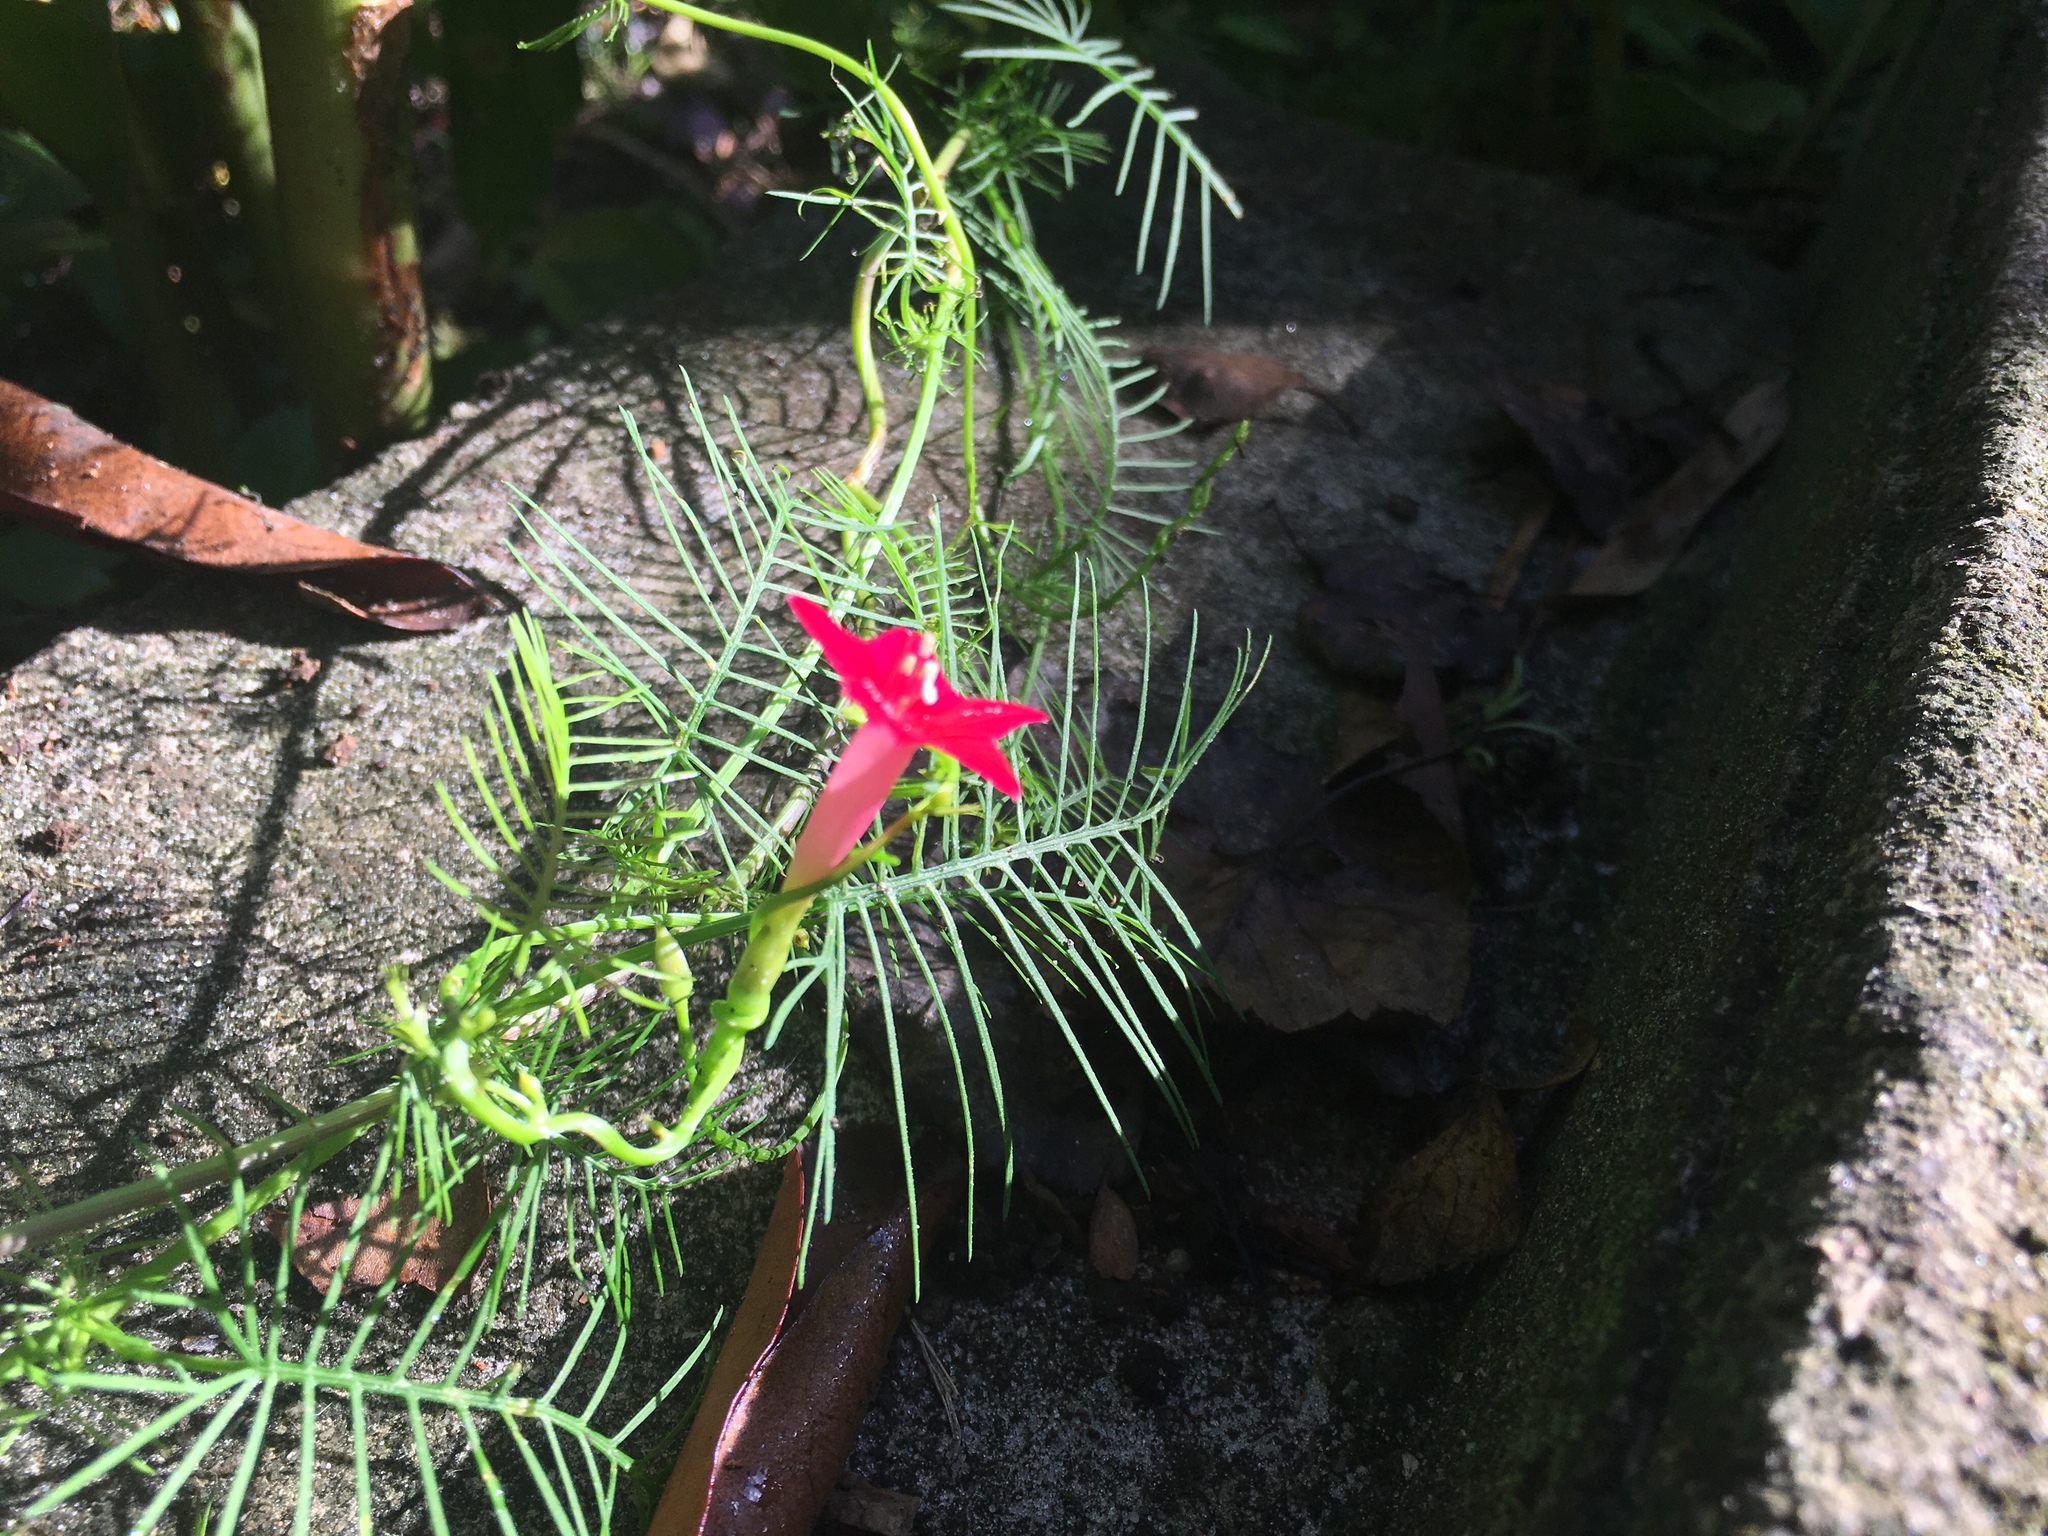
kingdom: Plantae
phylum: Tracheophyta
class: Magnoliopsida
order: Solanales
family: Convolvulaceae
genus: Ipomoea
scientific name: Ipomoea quamoclit
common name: Cypress vine
